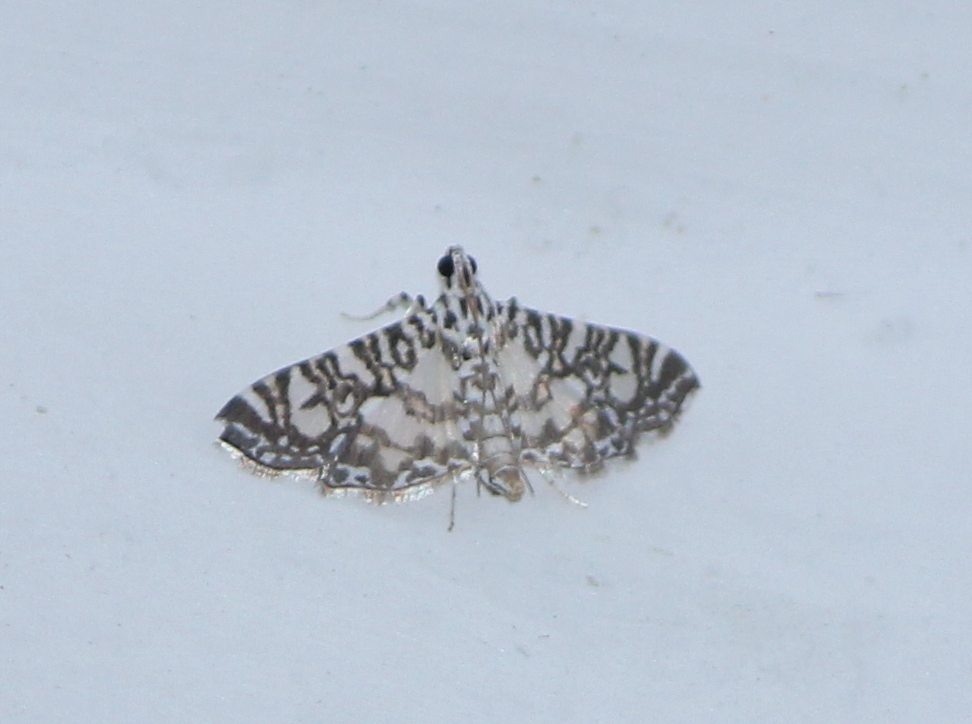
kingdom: Animalia
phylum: Arthropoda
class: Insecta
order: Lepidoptera
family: Crambidae
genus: Glyphodes
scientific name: Glyphodes onychinalis
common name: Swan plant moth
